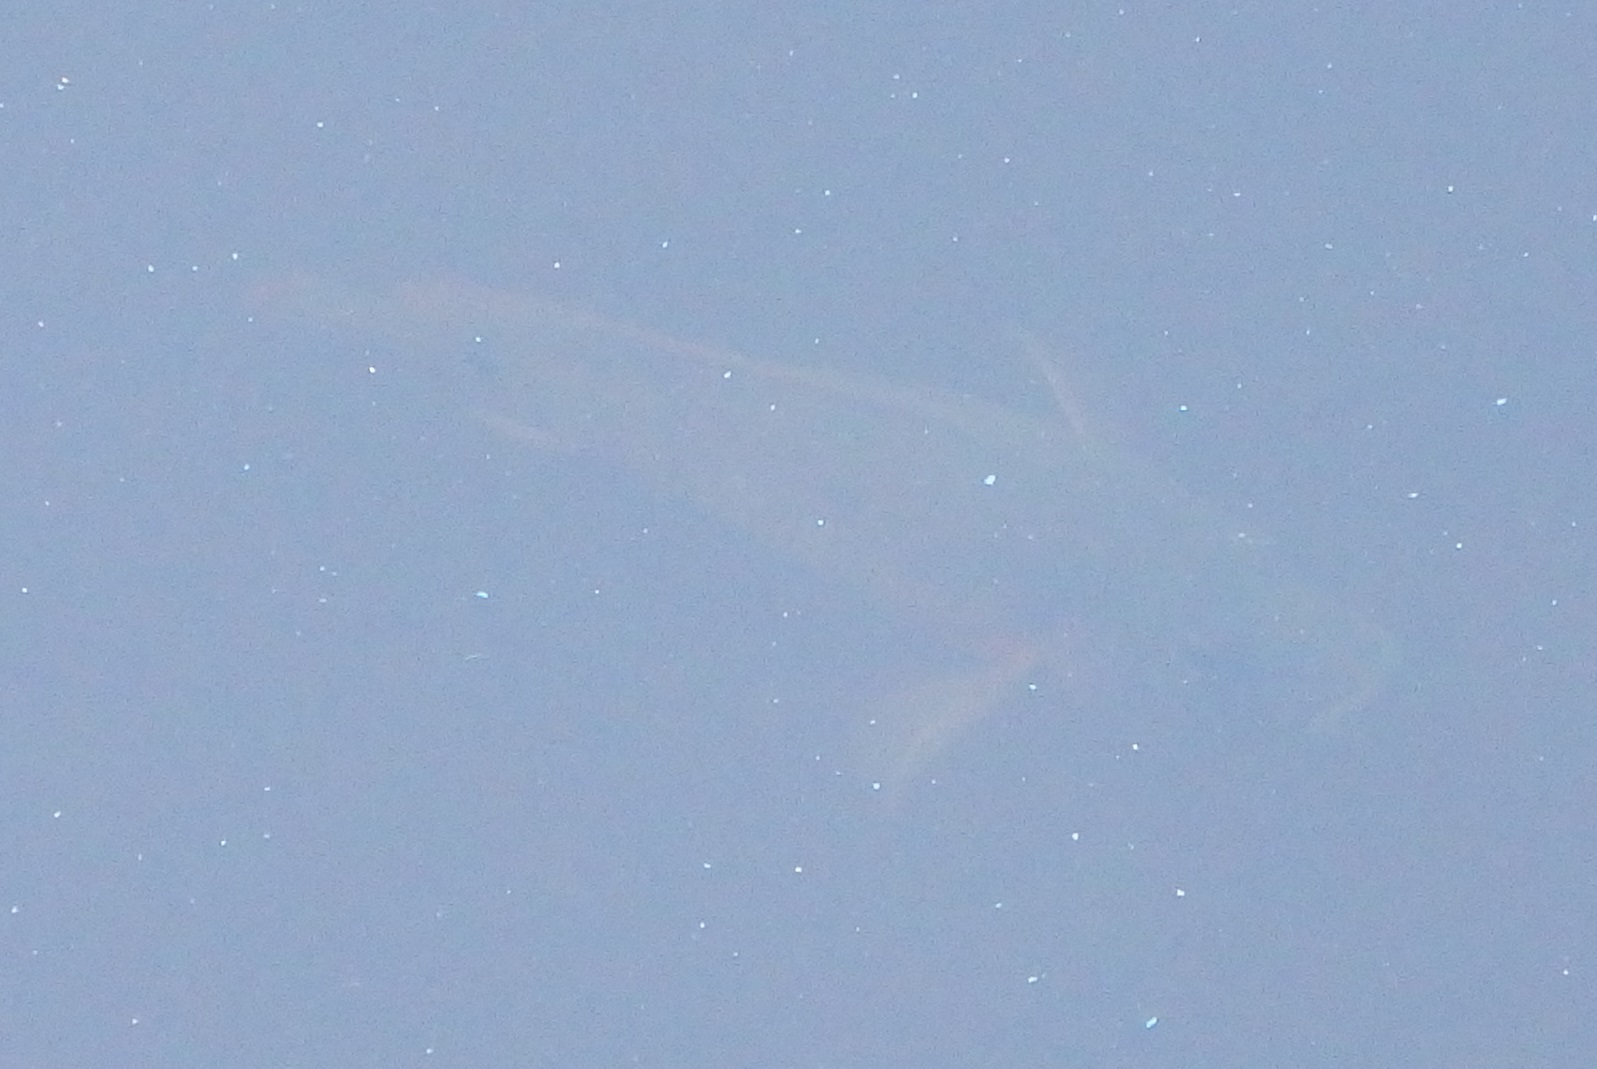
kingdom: Animalia
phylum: Chordata
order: Perciformes
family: Cichlidae
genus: Mayaheros
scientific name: Mayaheros urophthalmus
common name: Mayan cichlid
